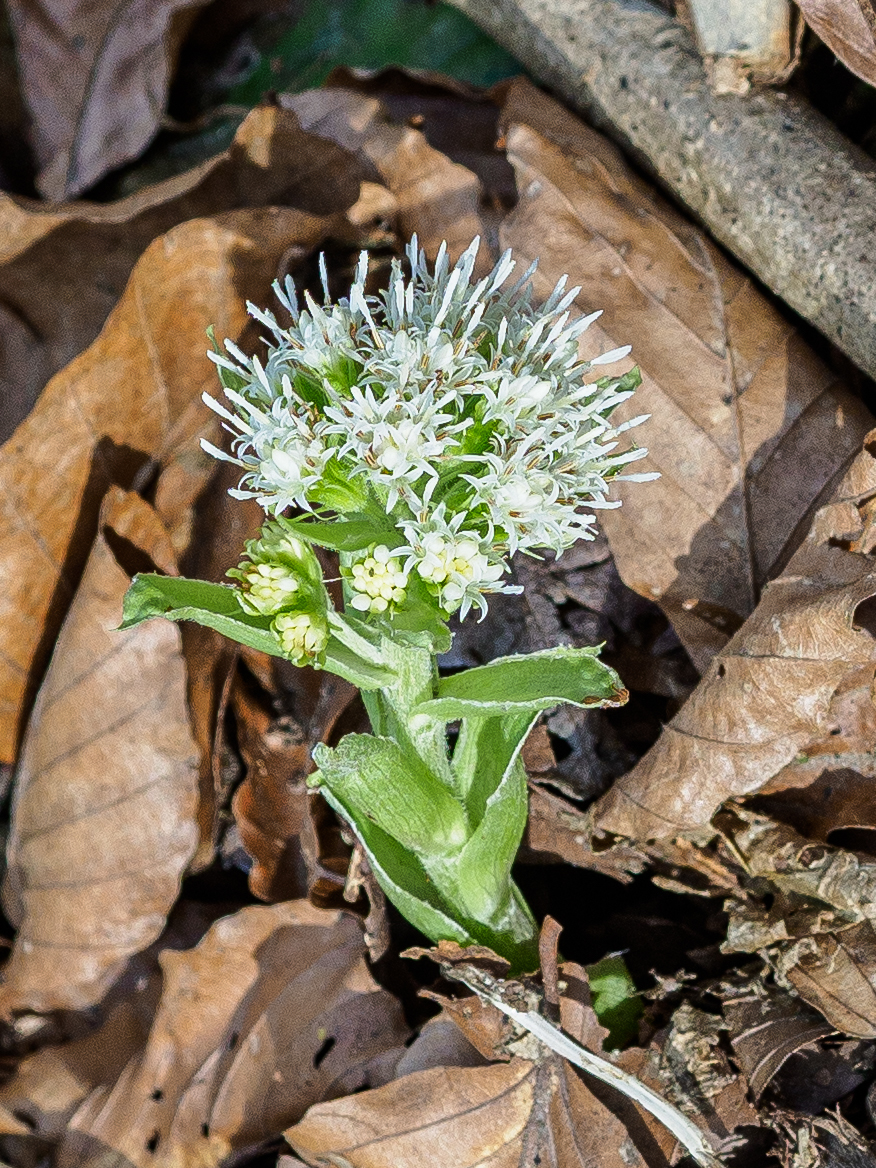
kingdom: Plantae
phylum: Tracheophyta
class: Magnoliopsida
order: Asterales
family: Asteraceae
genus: Petasites
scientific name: Petasites albus
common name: White butterbur
